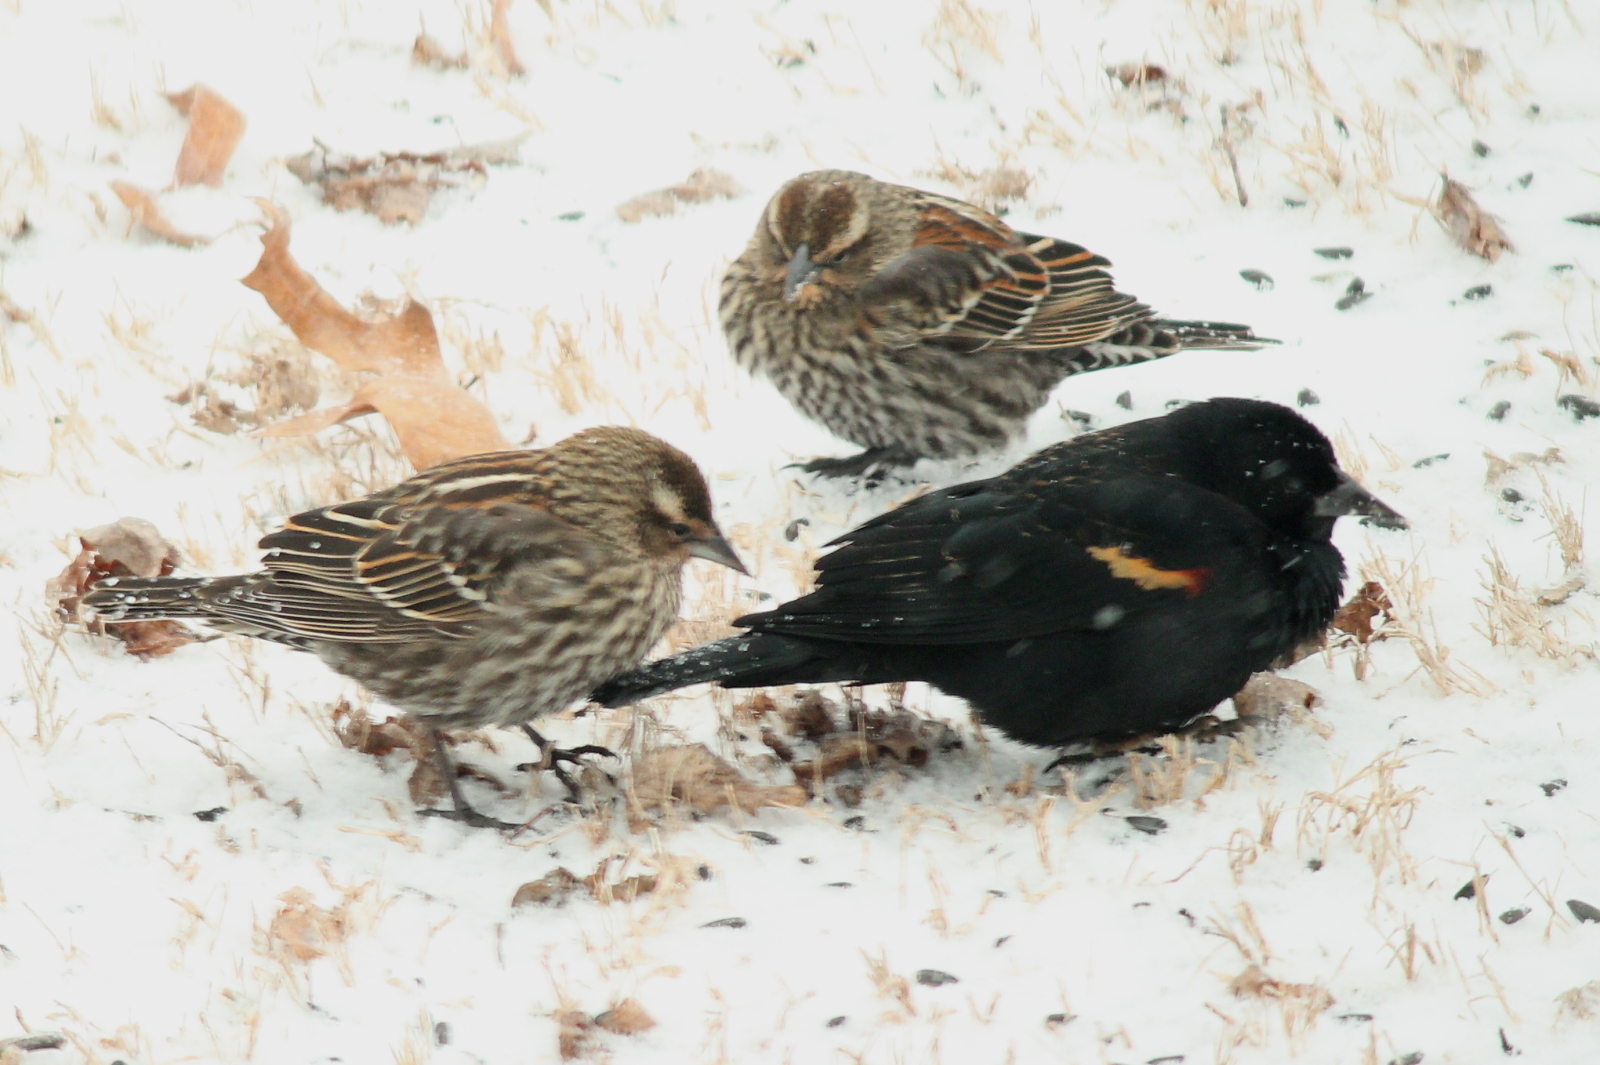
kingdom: Animalia
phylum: Chordata
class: Aves
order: Passeriformes
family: Icteridae
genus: Agelaius
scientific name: Agelaius phoeniceus
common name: Red-winged blackbird
